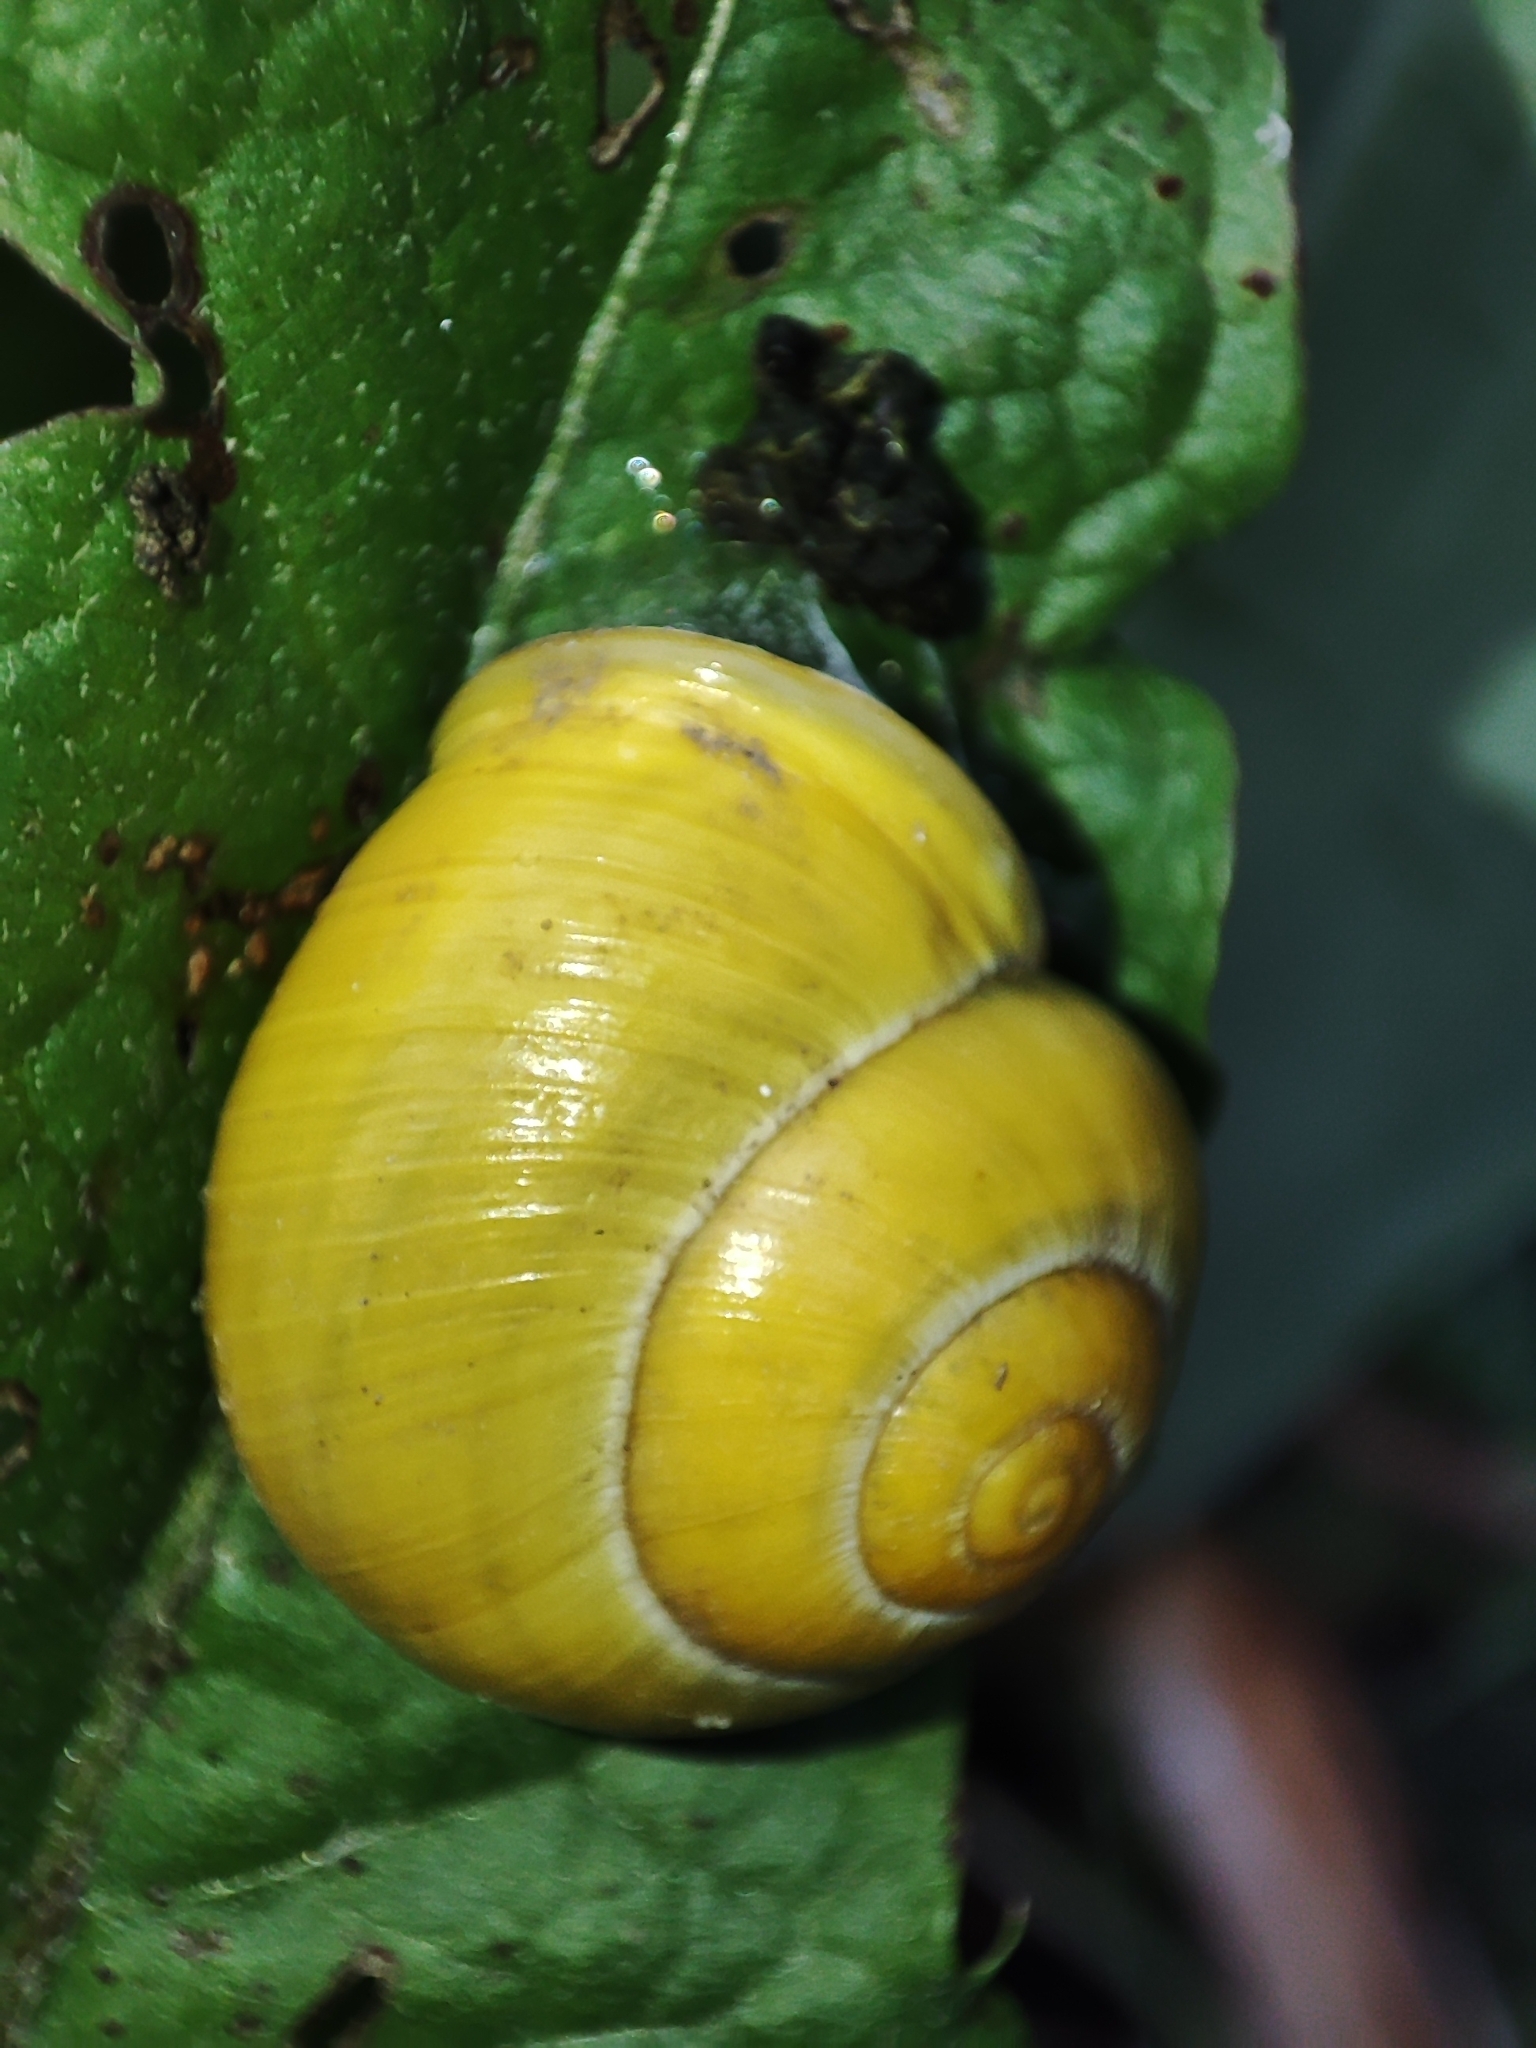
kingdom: Animalia
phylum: Mollusca
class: Gastropoda
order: Stylommatophora
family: Helicidae
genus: Cepaea
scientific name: Cepaea hortensis
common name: White-lip gardensnail
